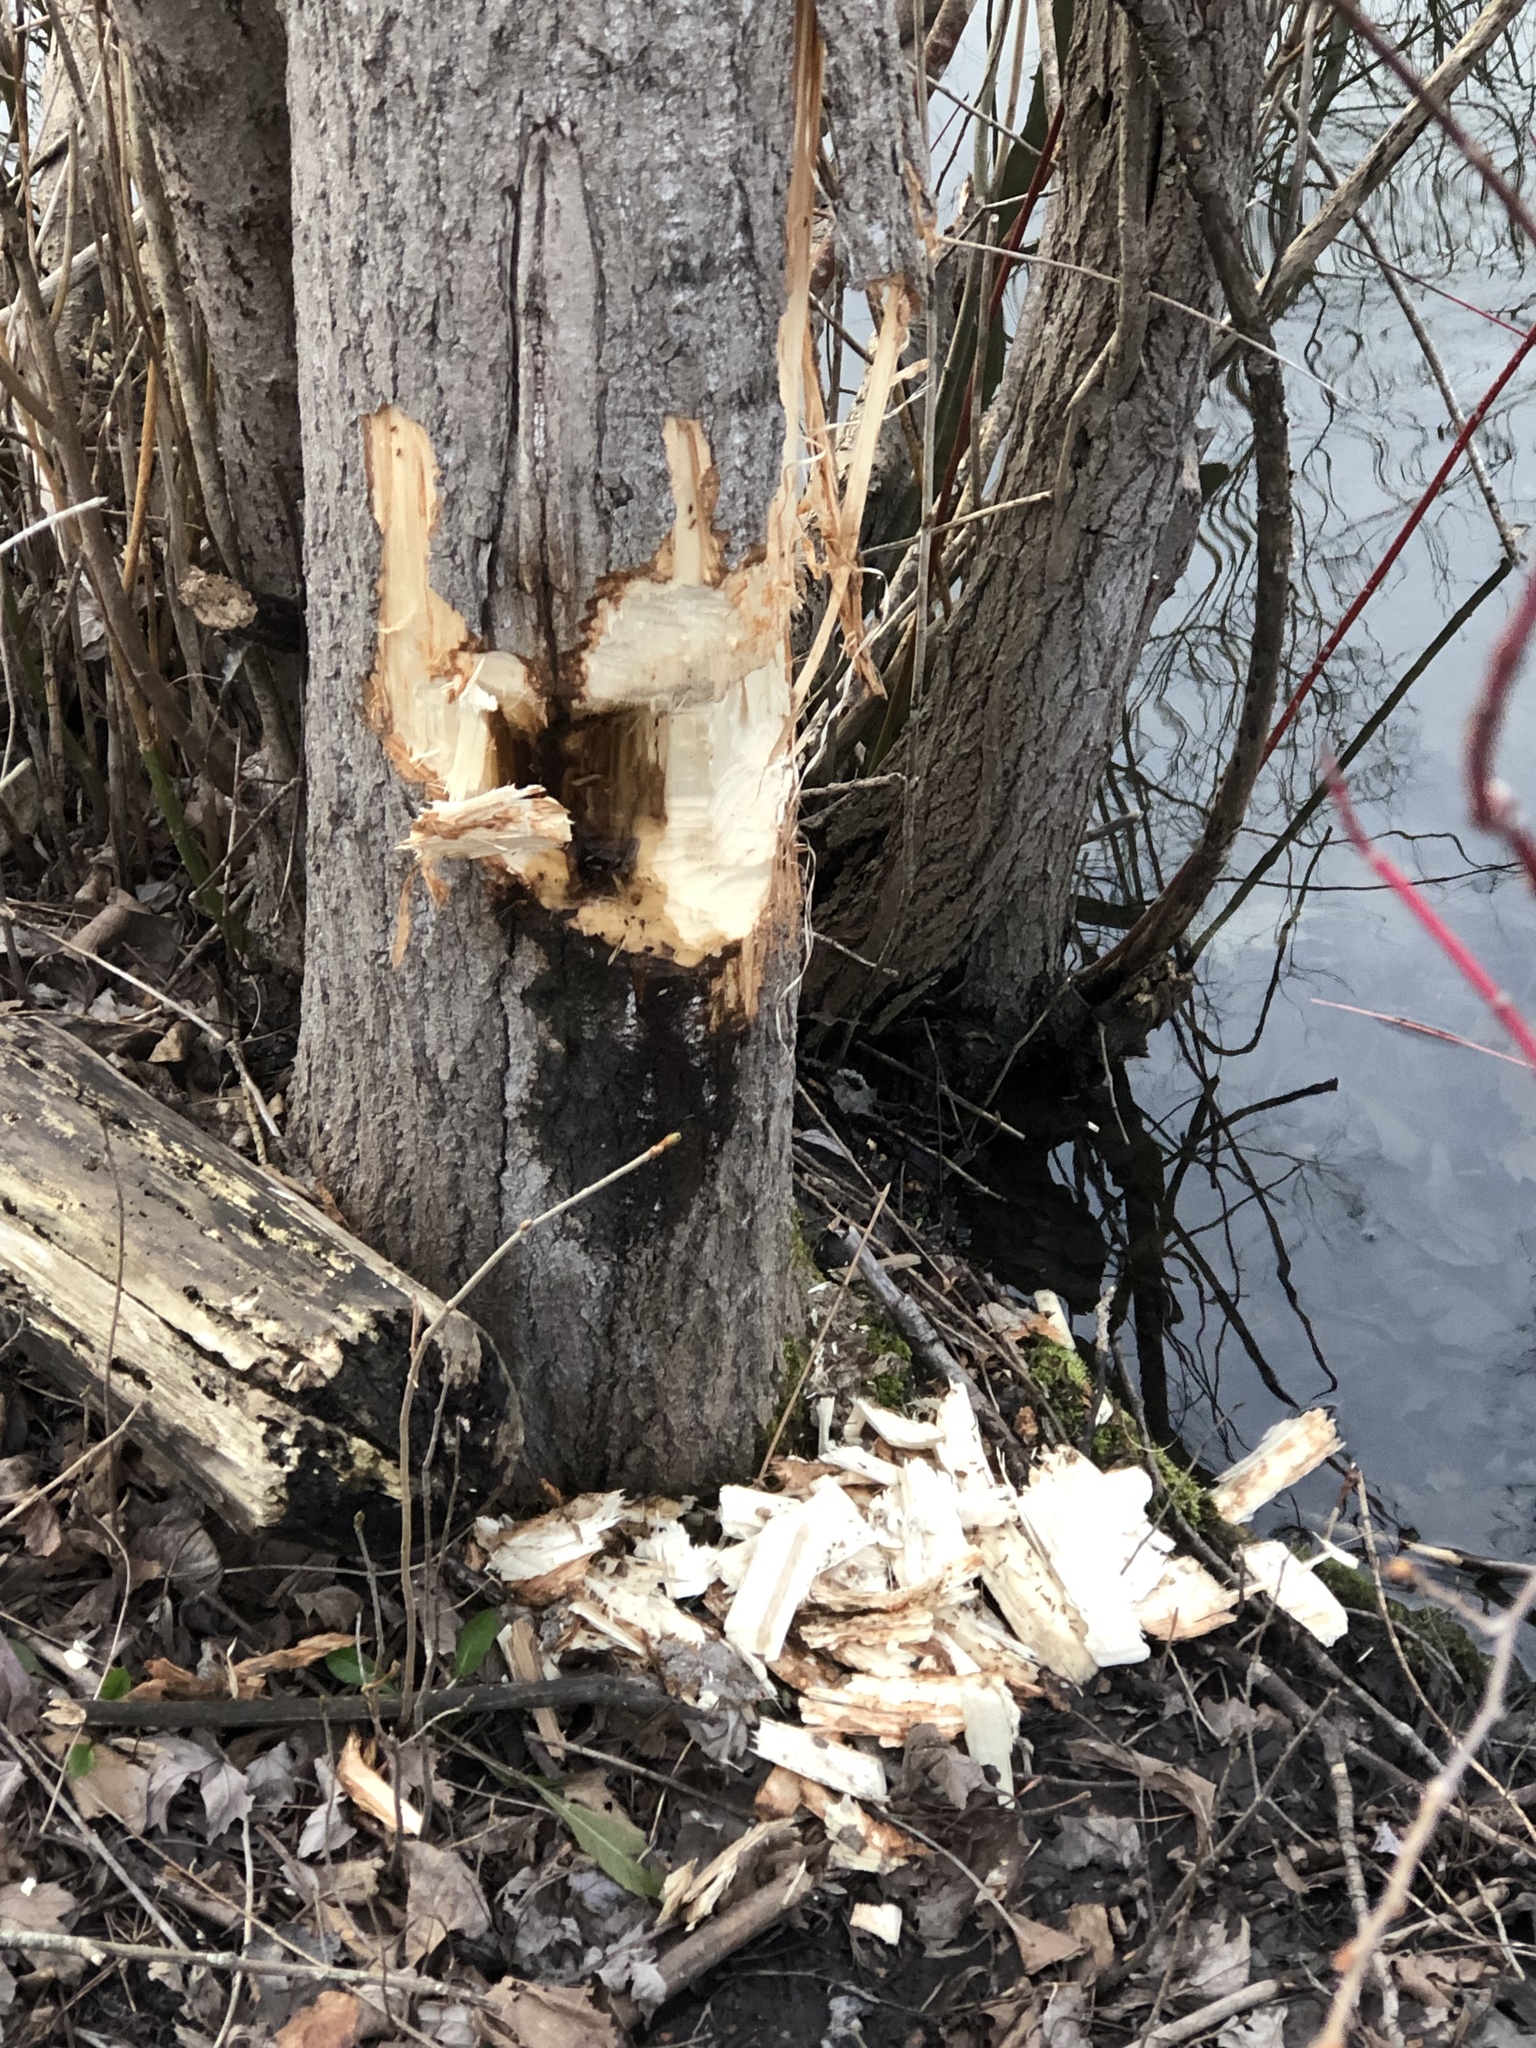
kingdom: Animalia
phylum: Chordata
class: Mammalia
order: Rodentia
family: Castoridae
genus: Castor
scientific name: Castor canadensis
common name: American beaver
